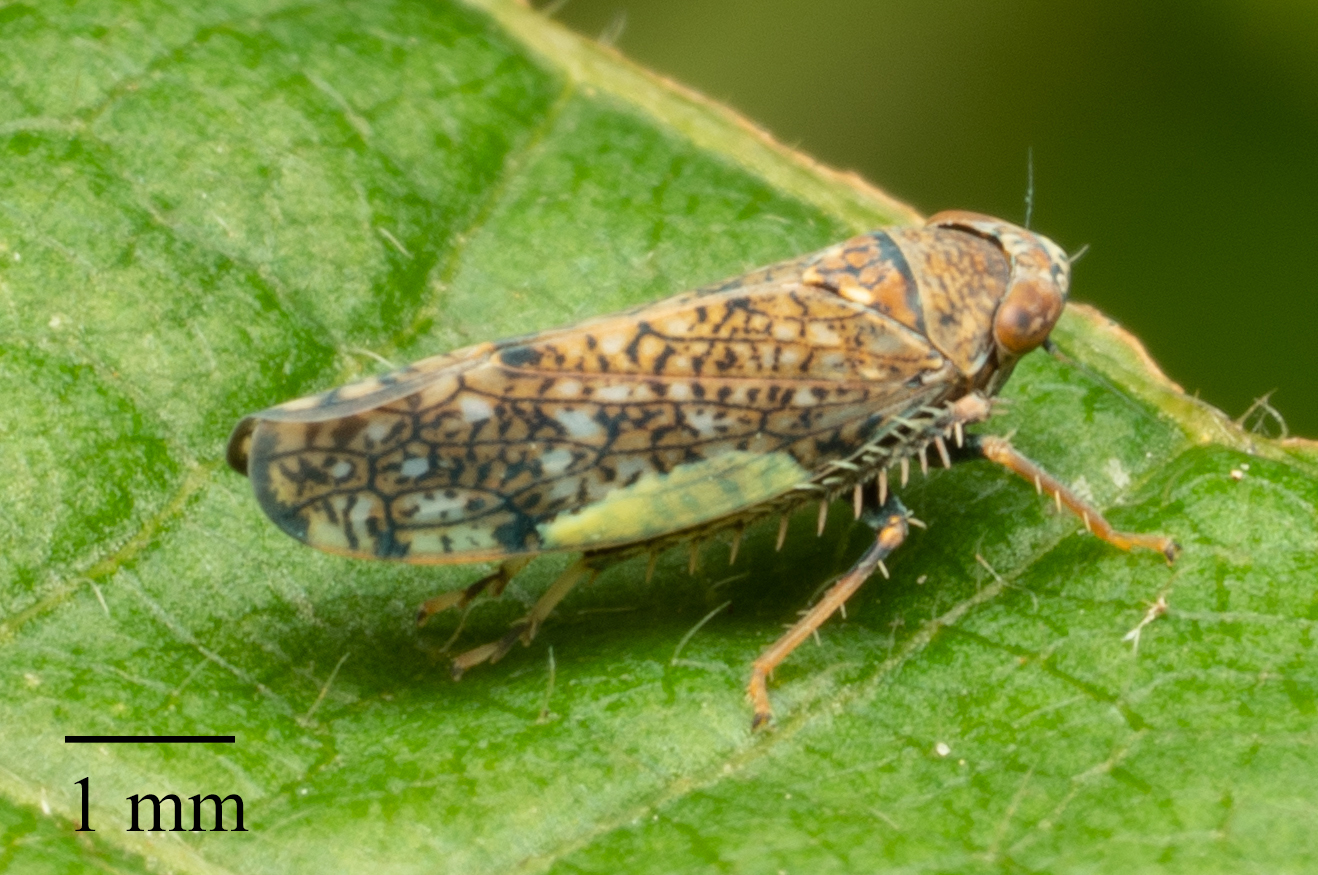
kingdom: Animalia
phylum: Arthropoda
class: Insecta
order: Hemiptera
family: Cicadellidae
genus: Orientus
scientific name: Orientus ishidae
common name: Japanese leafhopper
